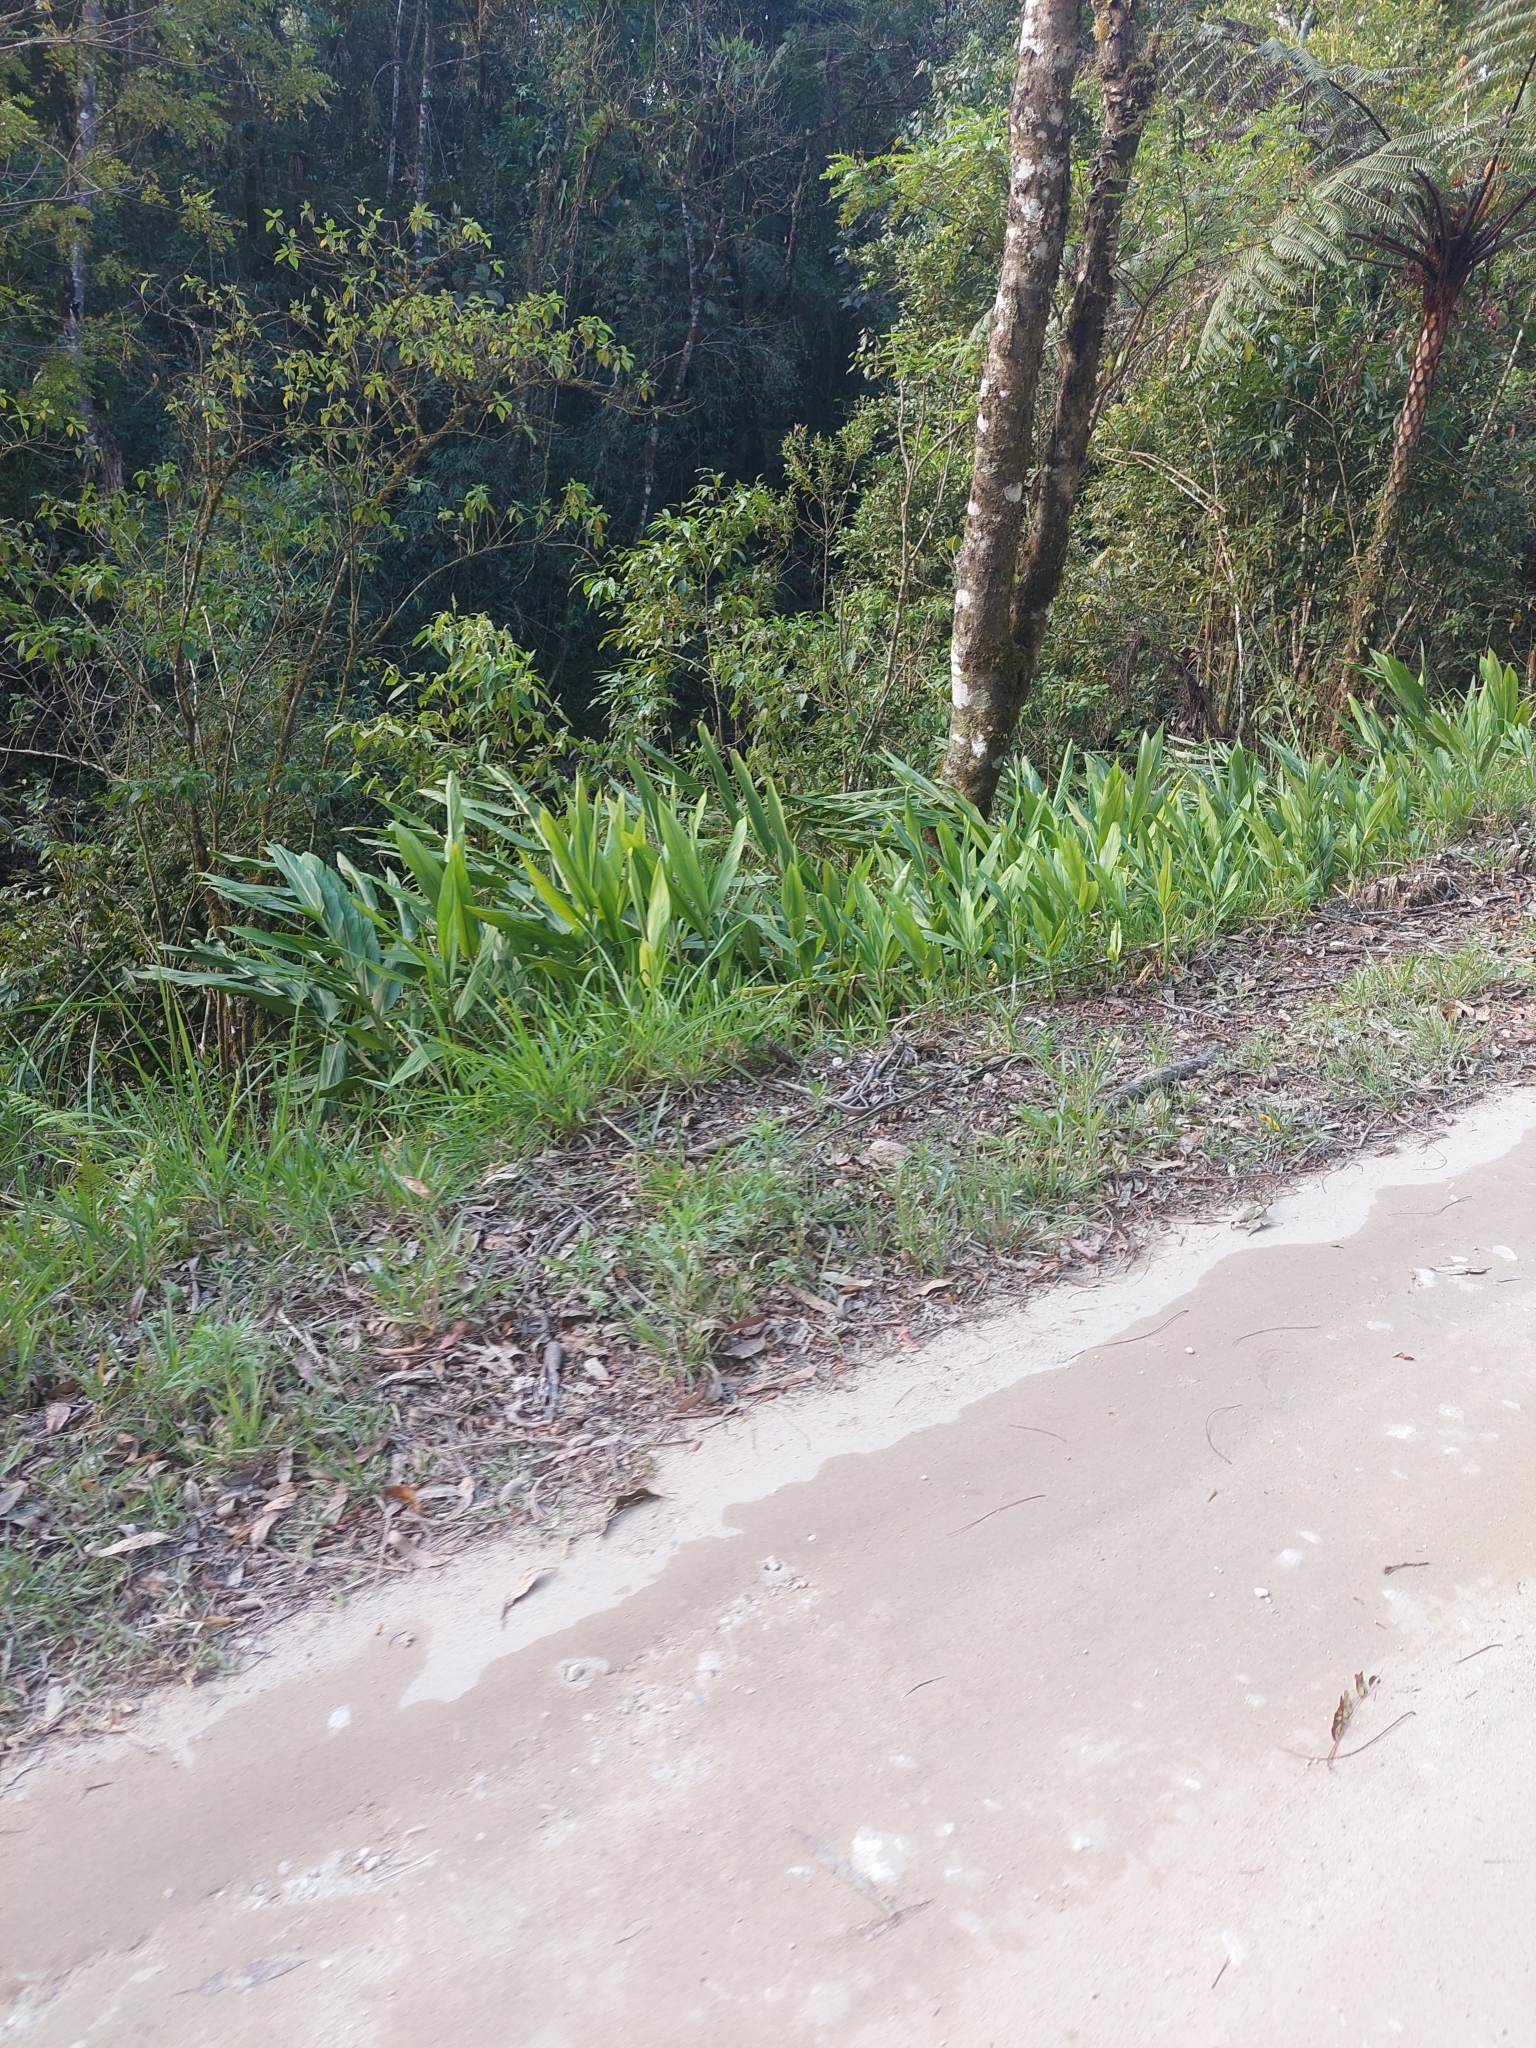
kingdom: Plantae
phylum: Tracheophyta
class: Liliopsida
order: Zingiberales
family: Zingiberaceae
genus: Hedychium
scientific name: Hedychium coronarium
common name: White garland-lily
